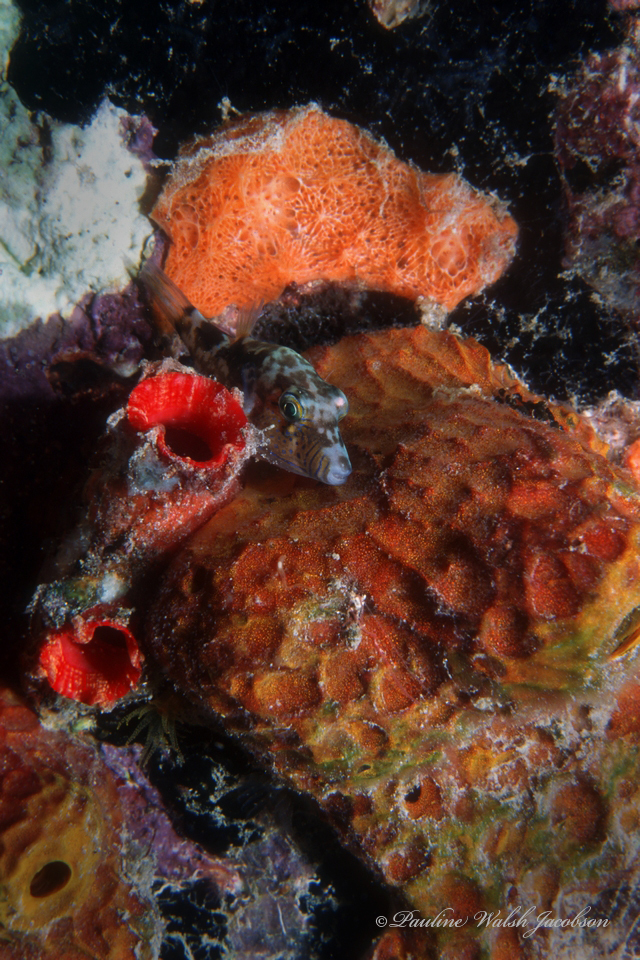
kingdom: Animalia
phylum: Chordata
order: Tetraodontiformes
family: Tetraodontidae
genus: Canthigaster
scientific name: Canthigaster rostrata
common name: Caribbean sharpnose-puffer
